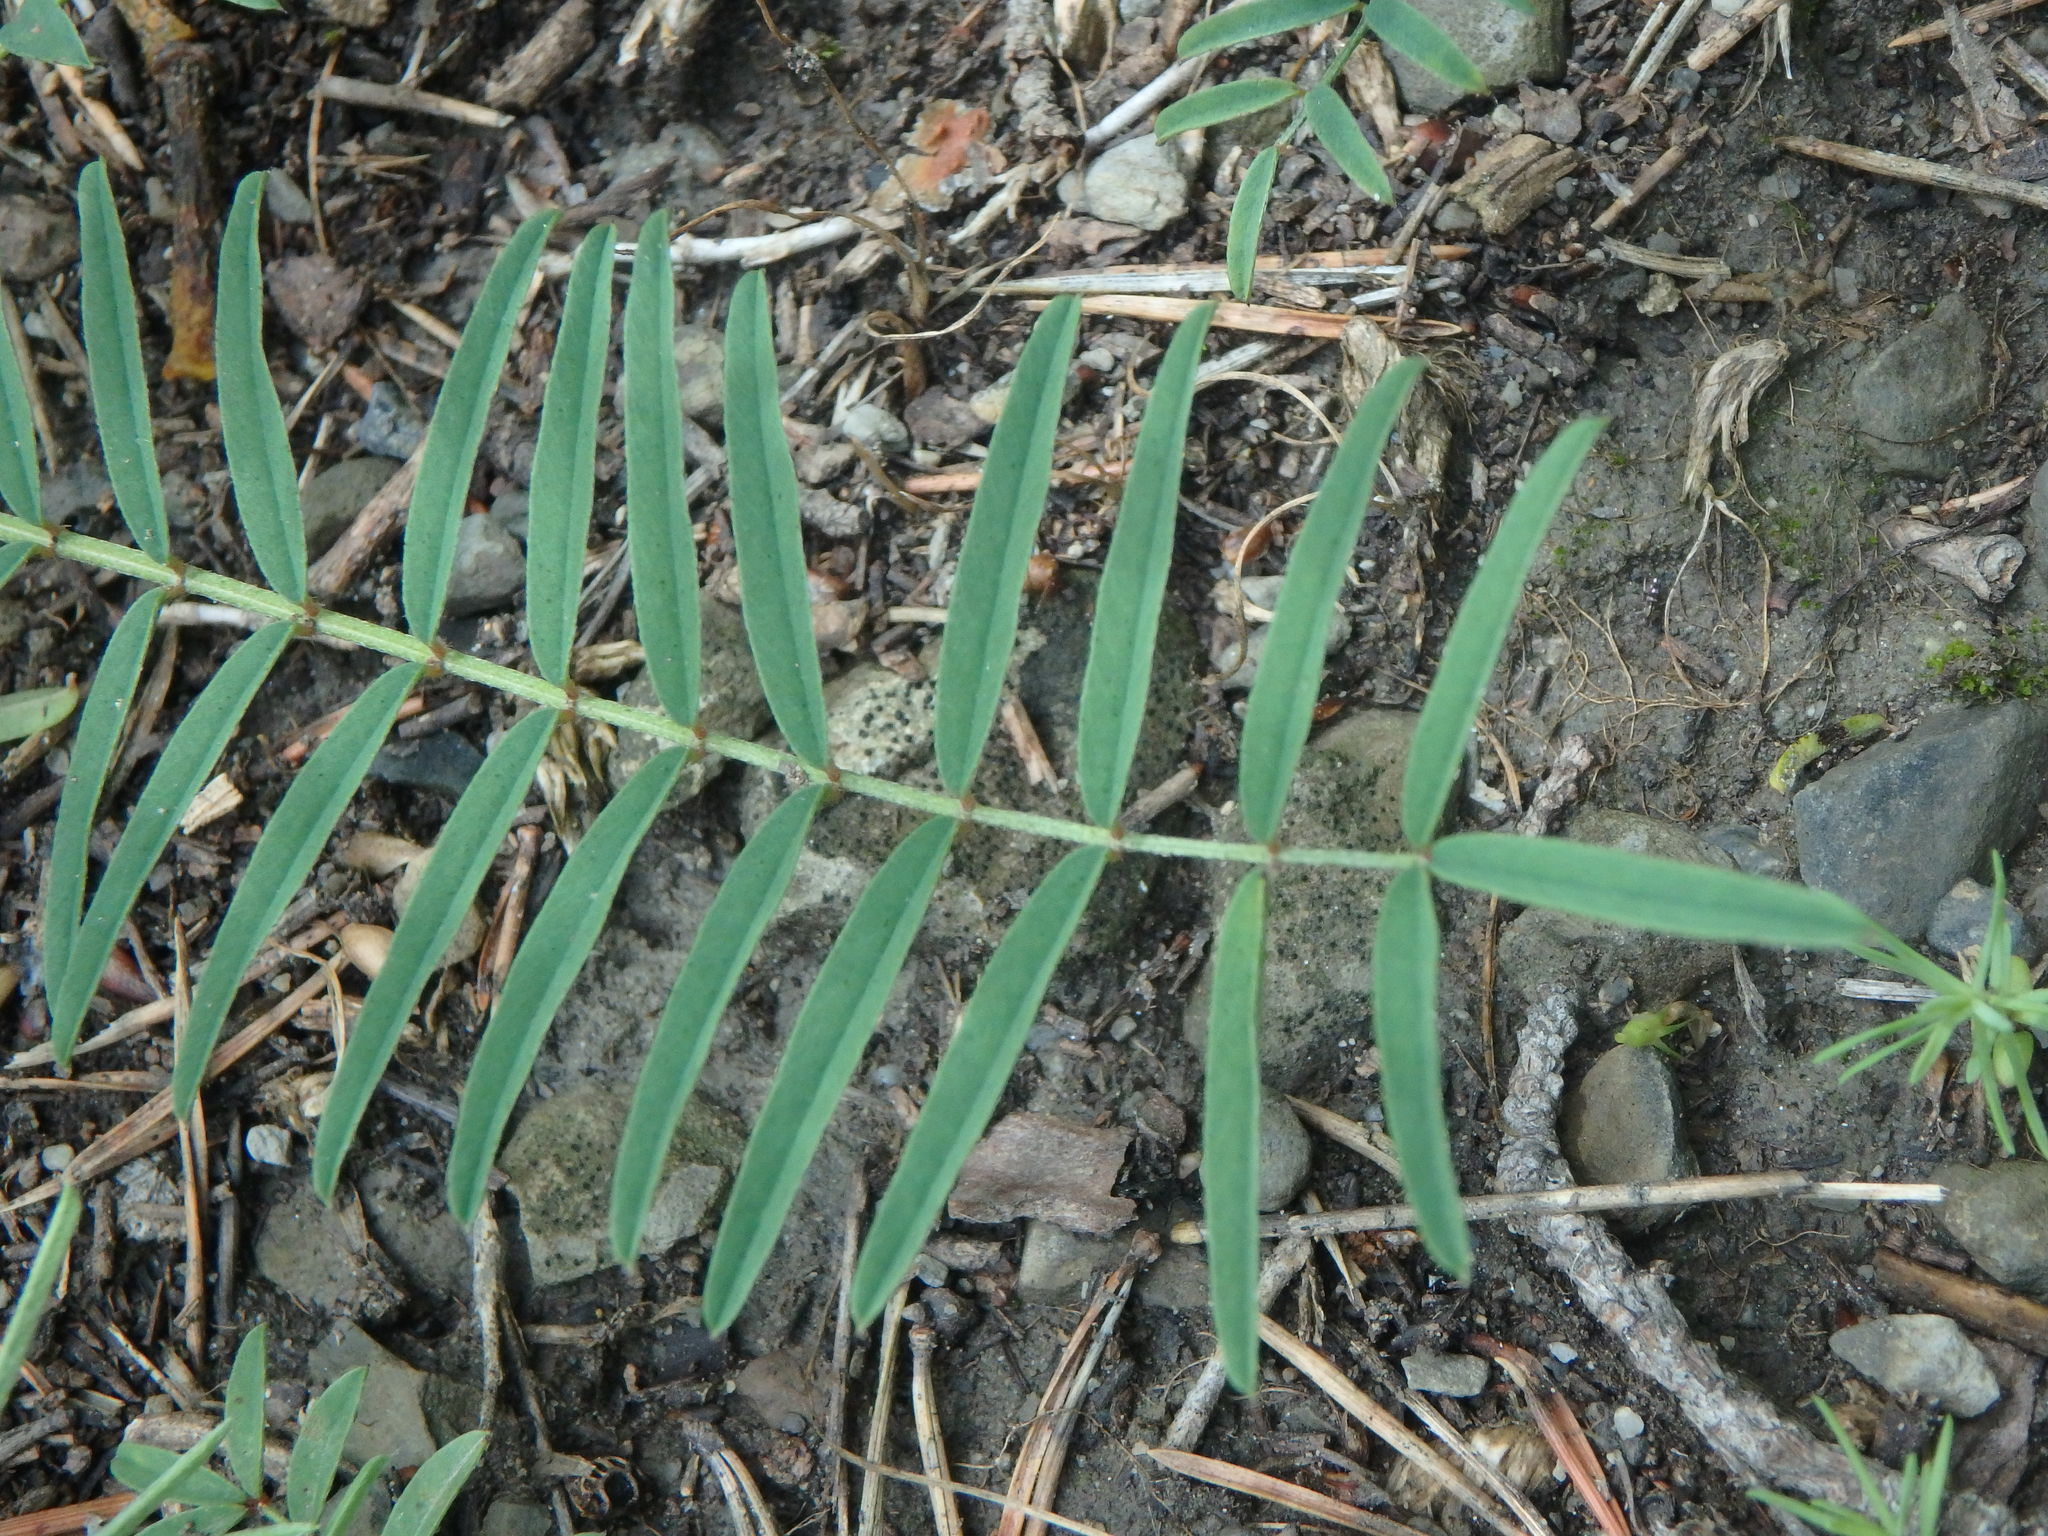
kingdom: Plantae
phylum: Tracheophyta
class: Magnoliopsida
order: Fabales
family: Fabaceae
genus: Onobrychis
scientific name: Onobrychis saxatilis
